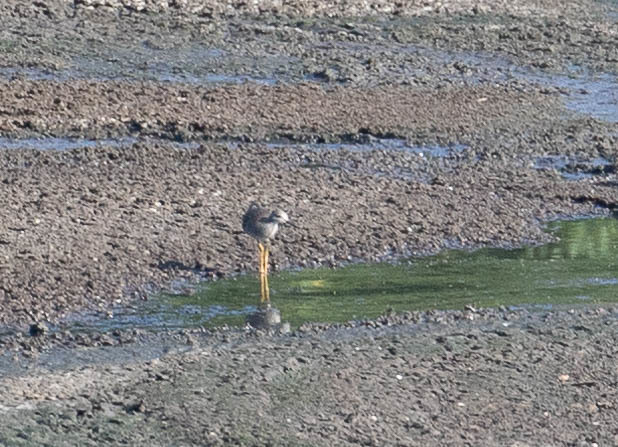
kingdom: Animalia
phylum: Chordata
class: Aves
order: Charadriiformes
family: Scolopacidae
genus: Tringa
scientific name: Tringa flavipes
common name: Lesser yellowlegs
